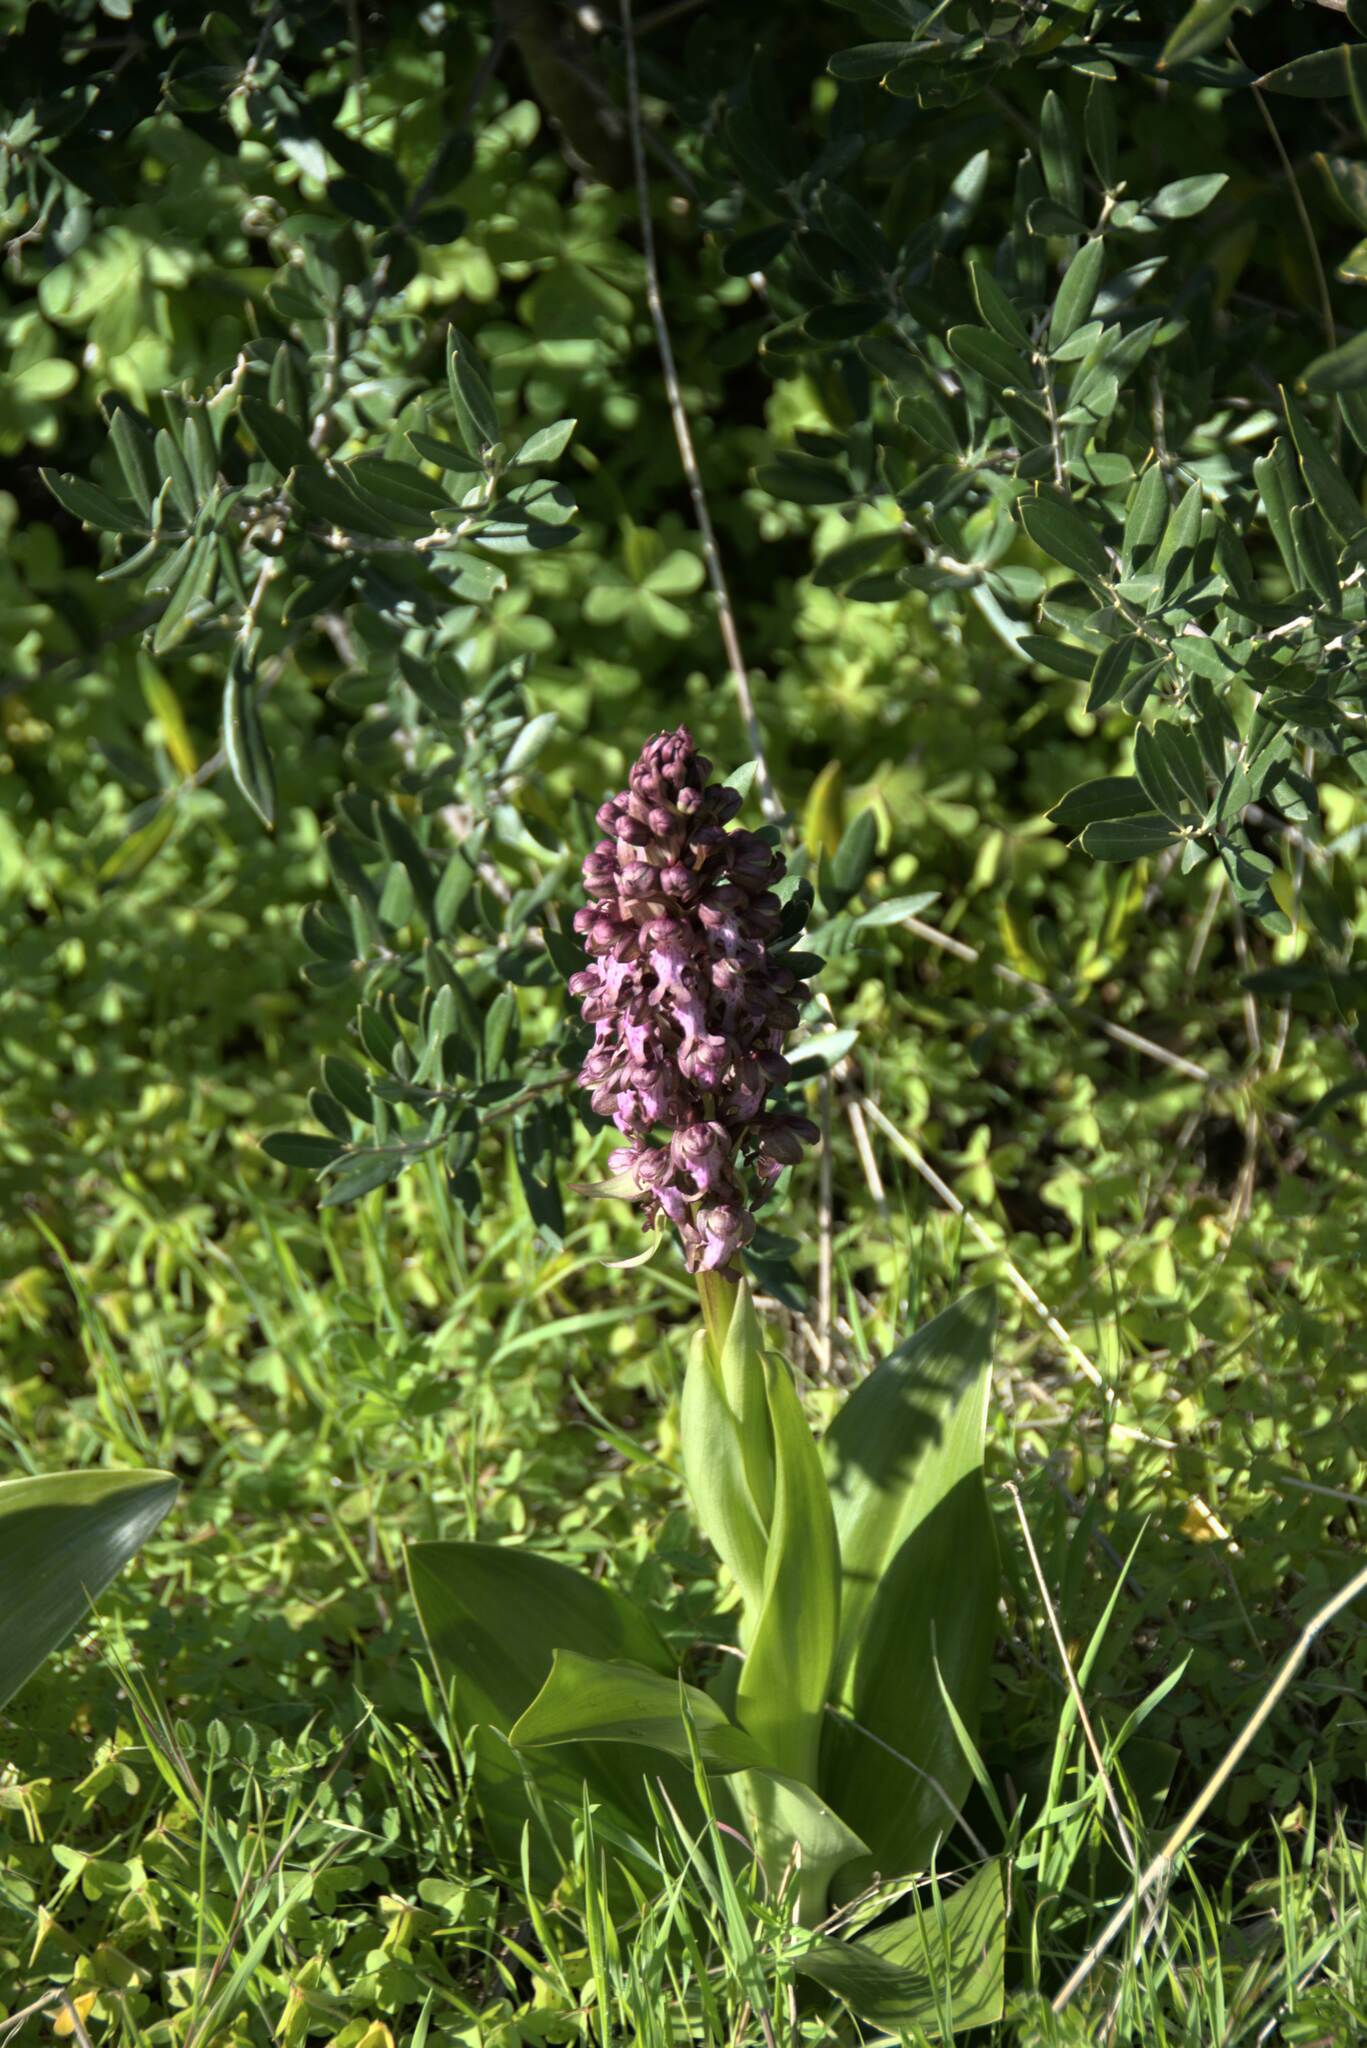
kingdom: Plantae
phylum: Tracheophyta
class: Liliopsida
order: Asparagales
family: Orchidaceae
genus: Himantoglossum
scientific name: Himantoglossum robertianum
